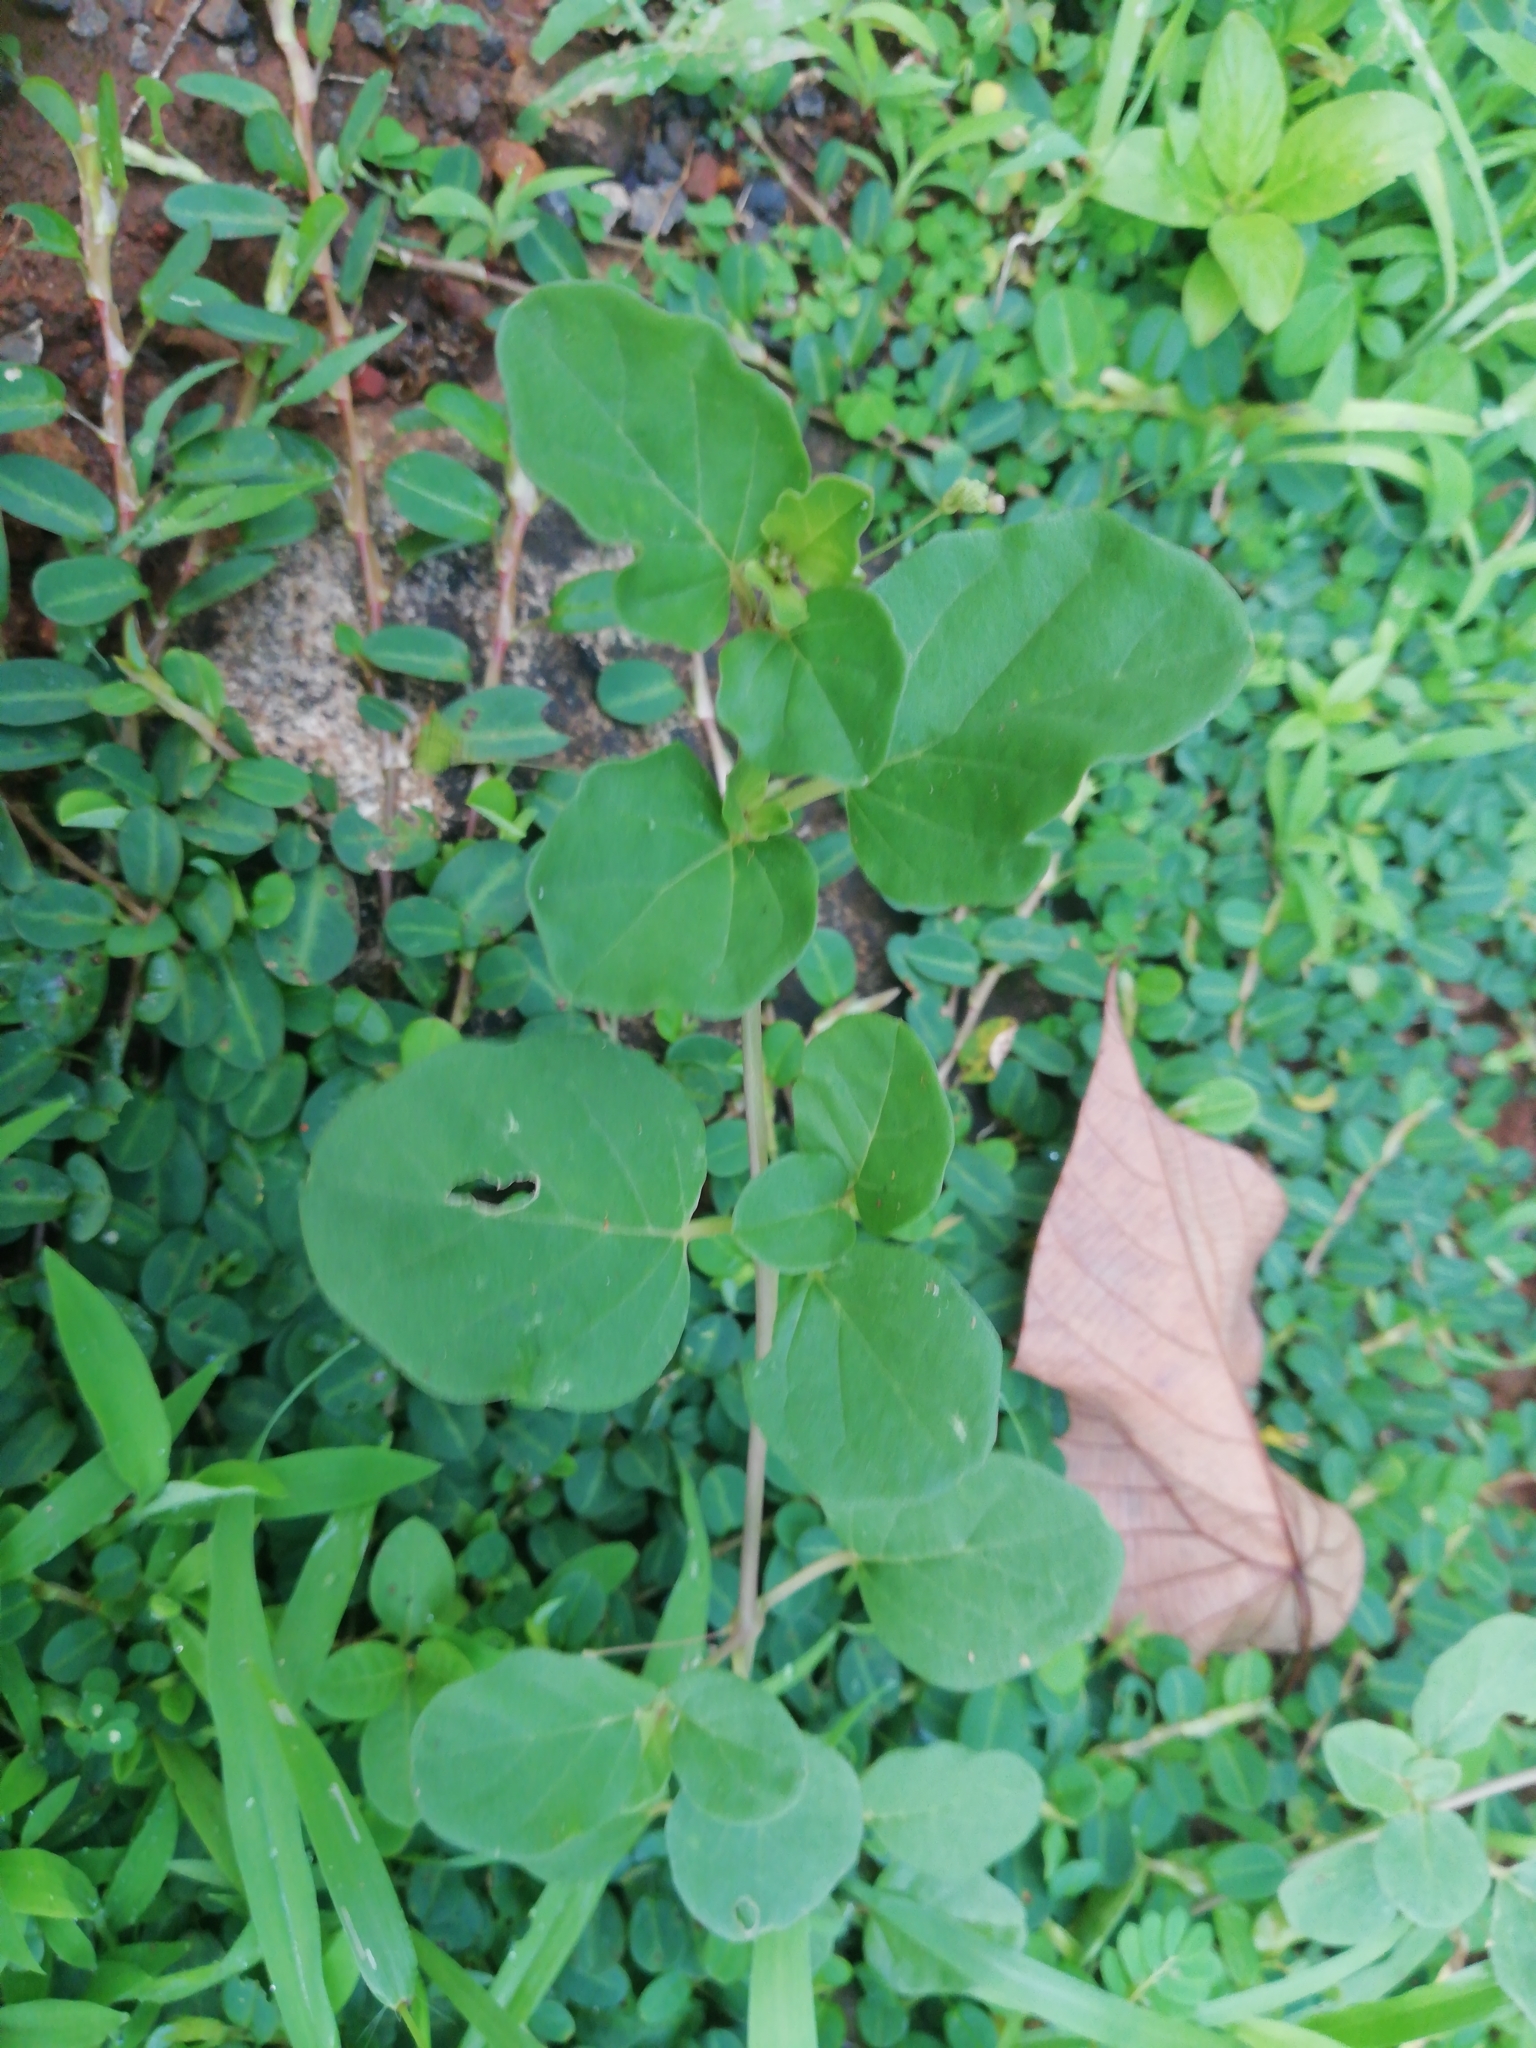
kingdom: Plantae
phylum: Tracheophyta
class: Magnoliopsida
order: Caryophyllales
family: Nyctaginaceae
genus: Boerhavia
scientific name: Boerhavia diffusa
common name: Red spiderling
